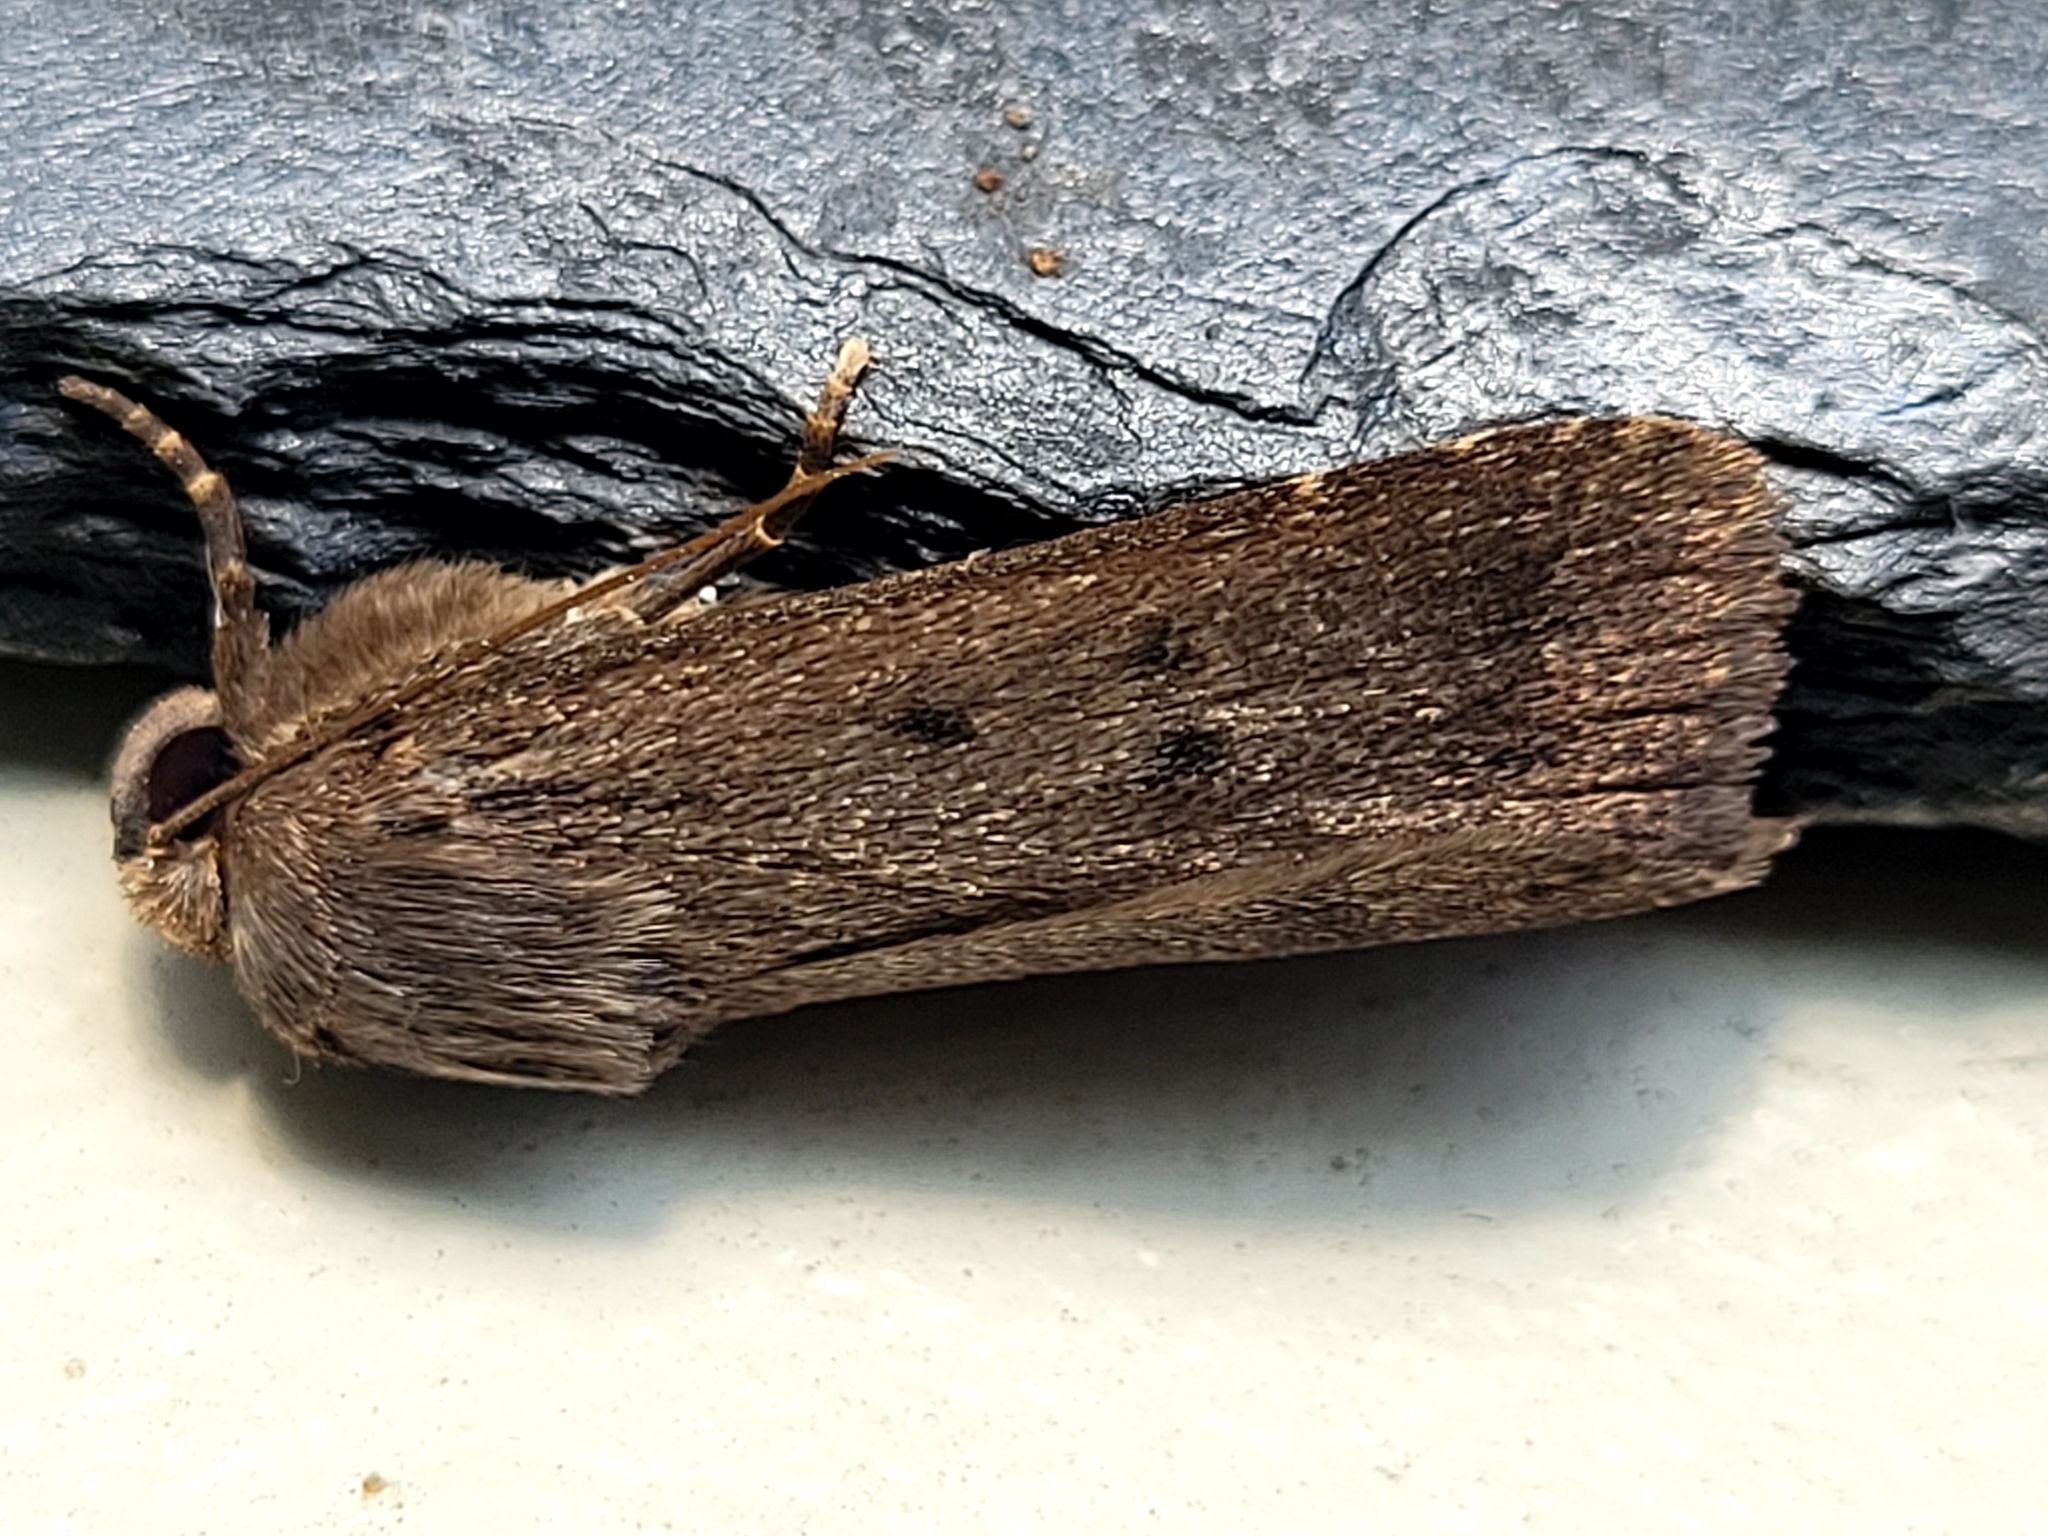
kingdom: Animalia
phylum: Arthropoda
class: Insecta
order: Lepidoptera
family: Noctuidae
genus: Amphipyra
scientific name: Amphipyra tragopoginis
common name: Mouse moth
